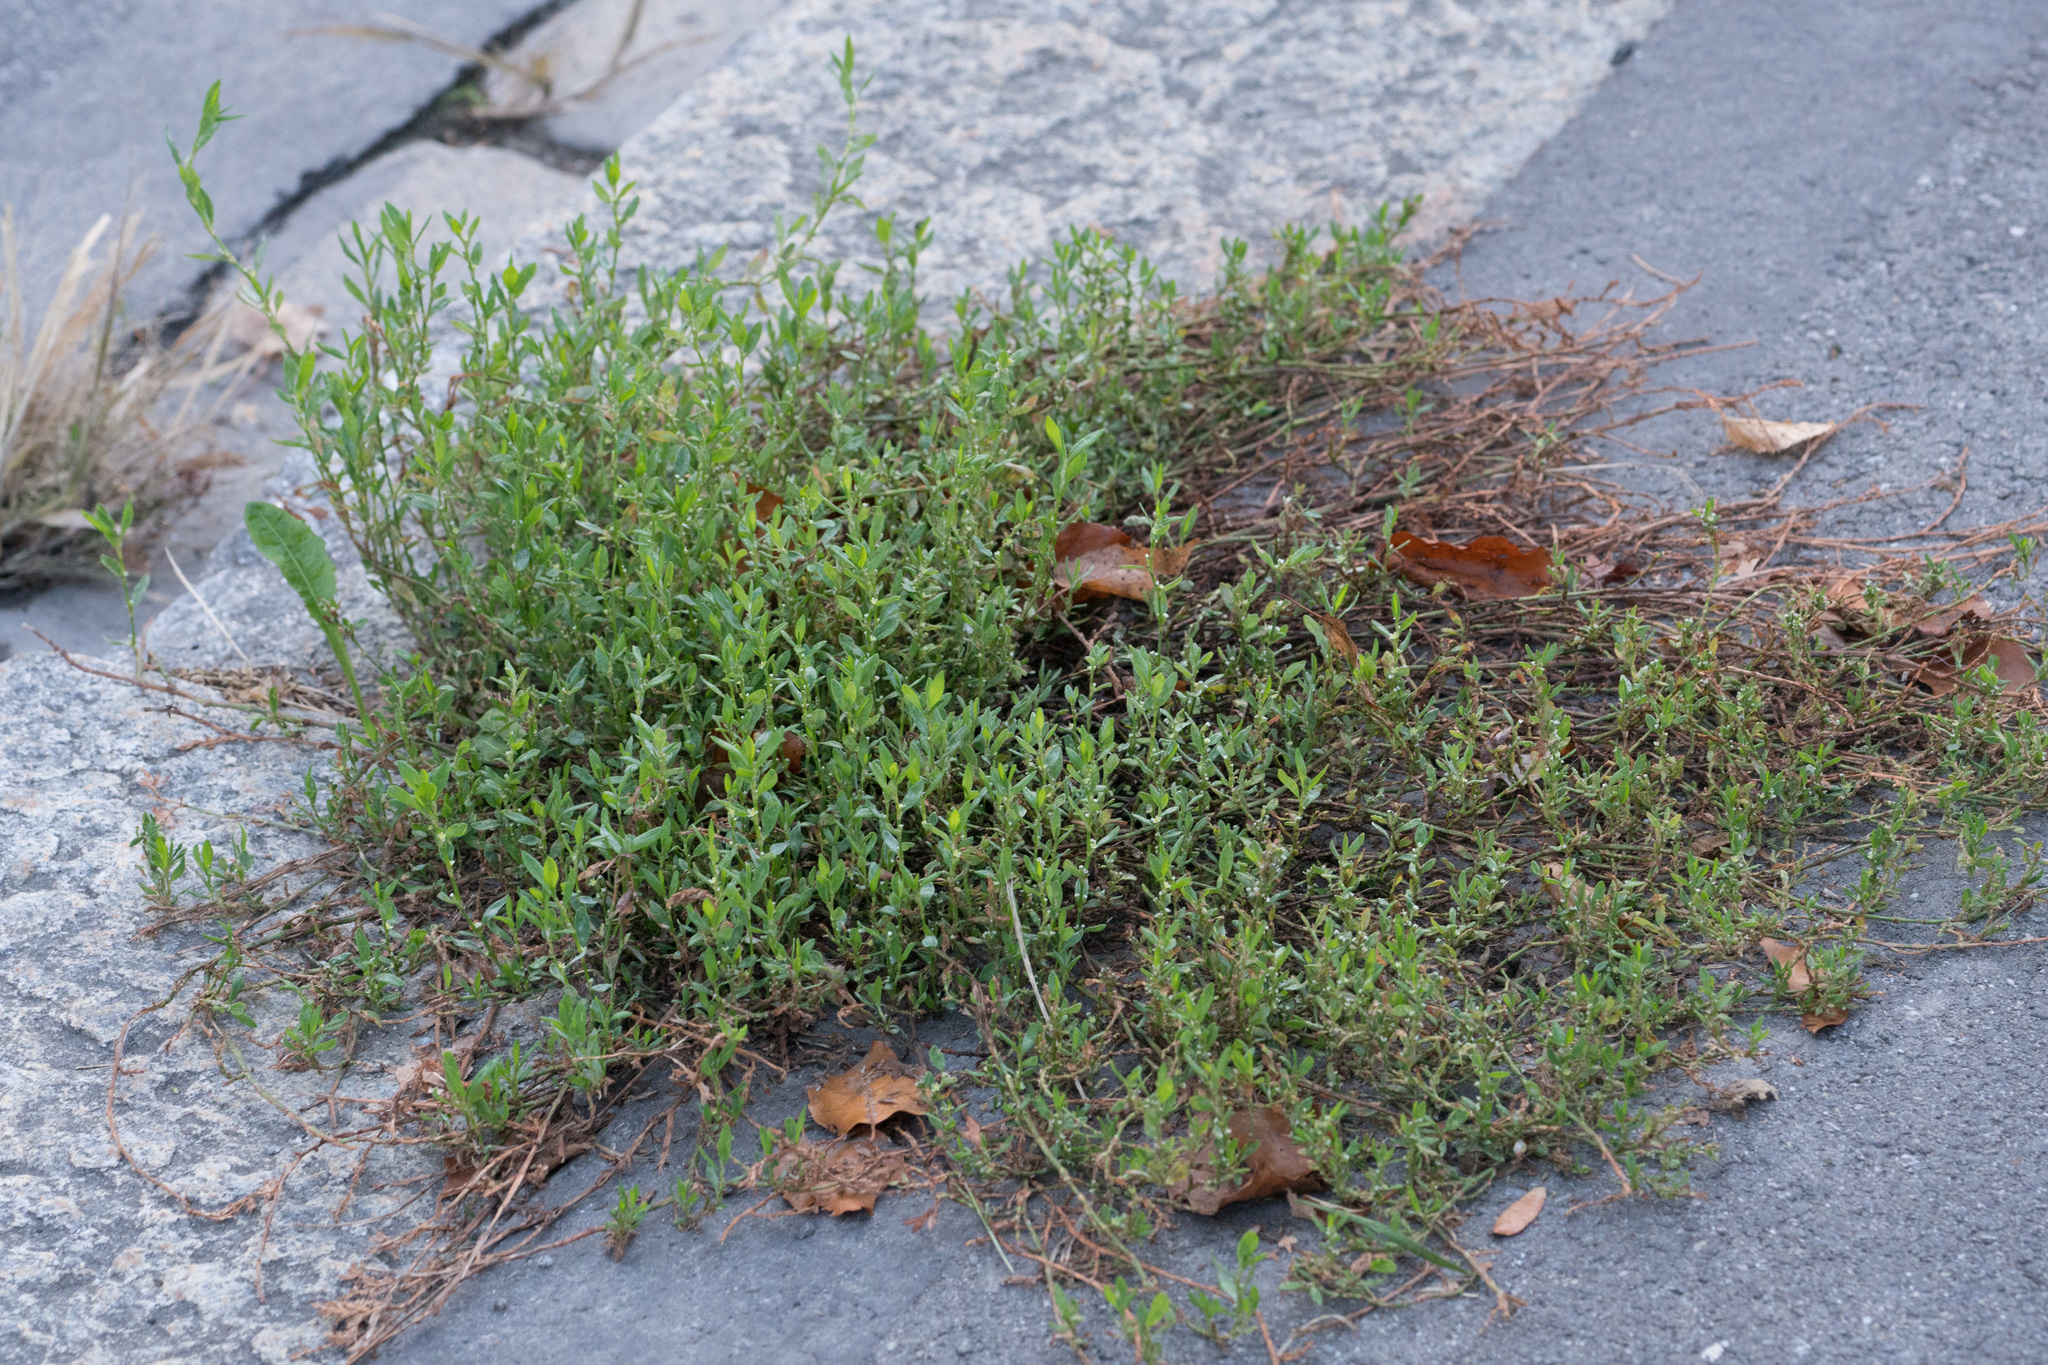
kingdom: Plantae
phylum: Tracheophyta
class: Magnoliopsida
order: Caryophyllales
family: Polygonaceae
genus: Polygonum
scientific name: Polygonum aviculare
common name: Prostrate knotweed
